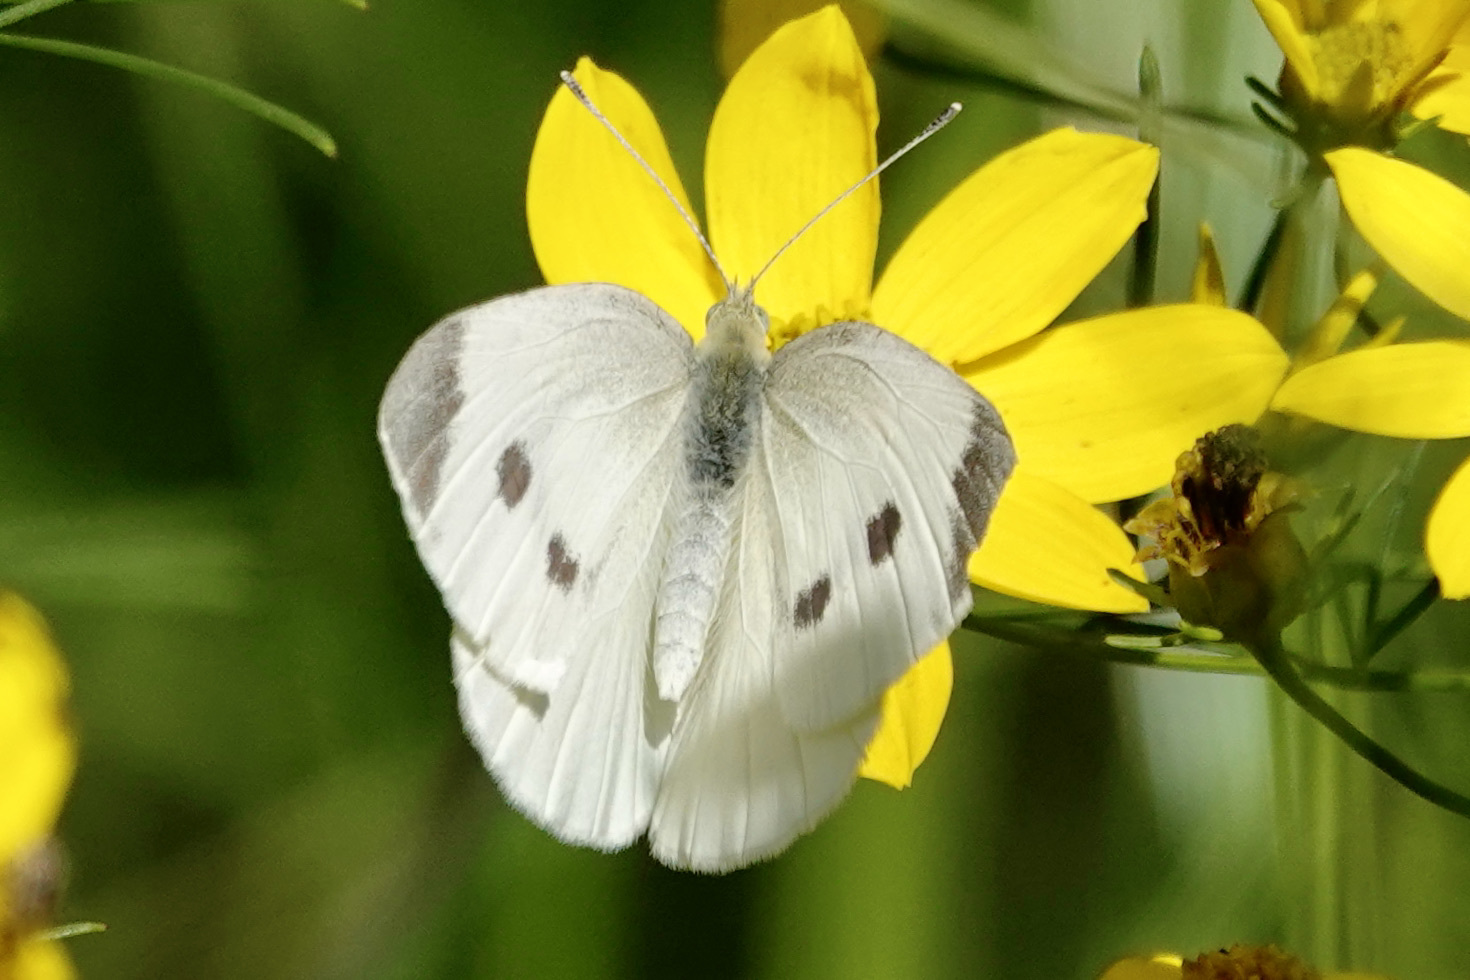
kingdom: Animalia
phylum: Arthropoda
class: Insecta
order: Lepidoptera
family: Pieridae
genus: Pieris
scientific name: Pieris rapae
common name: Small white
